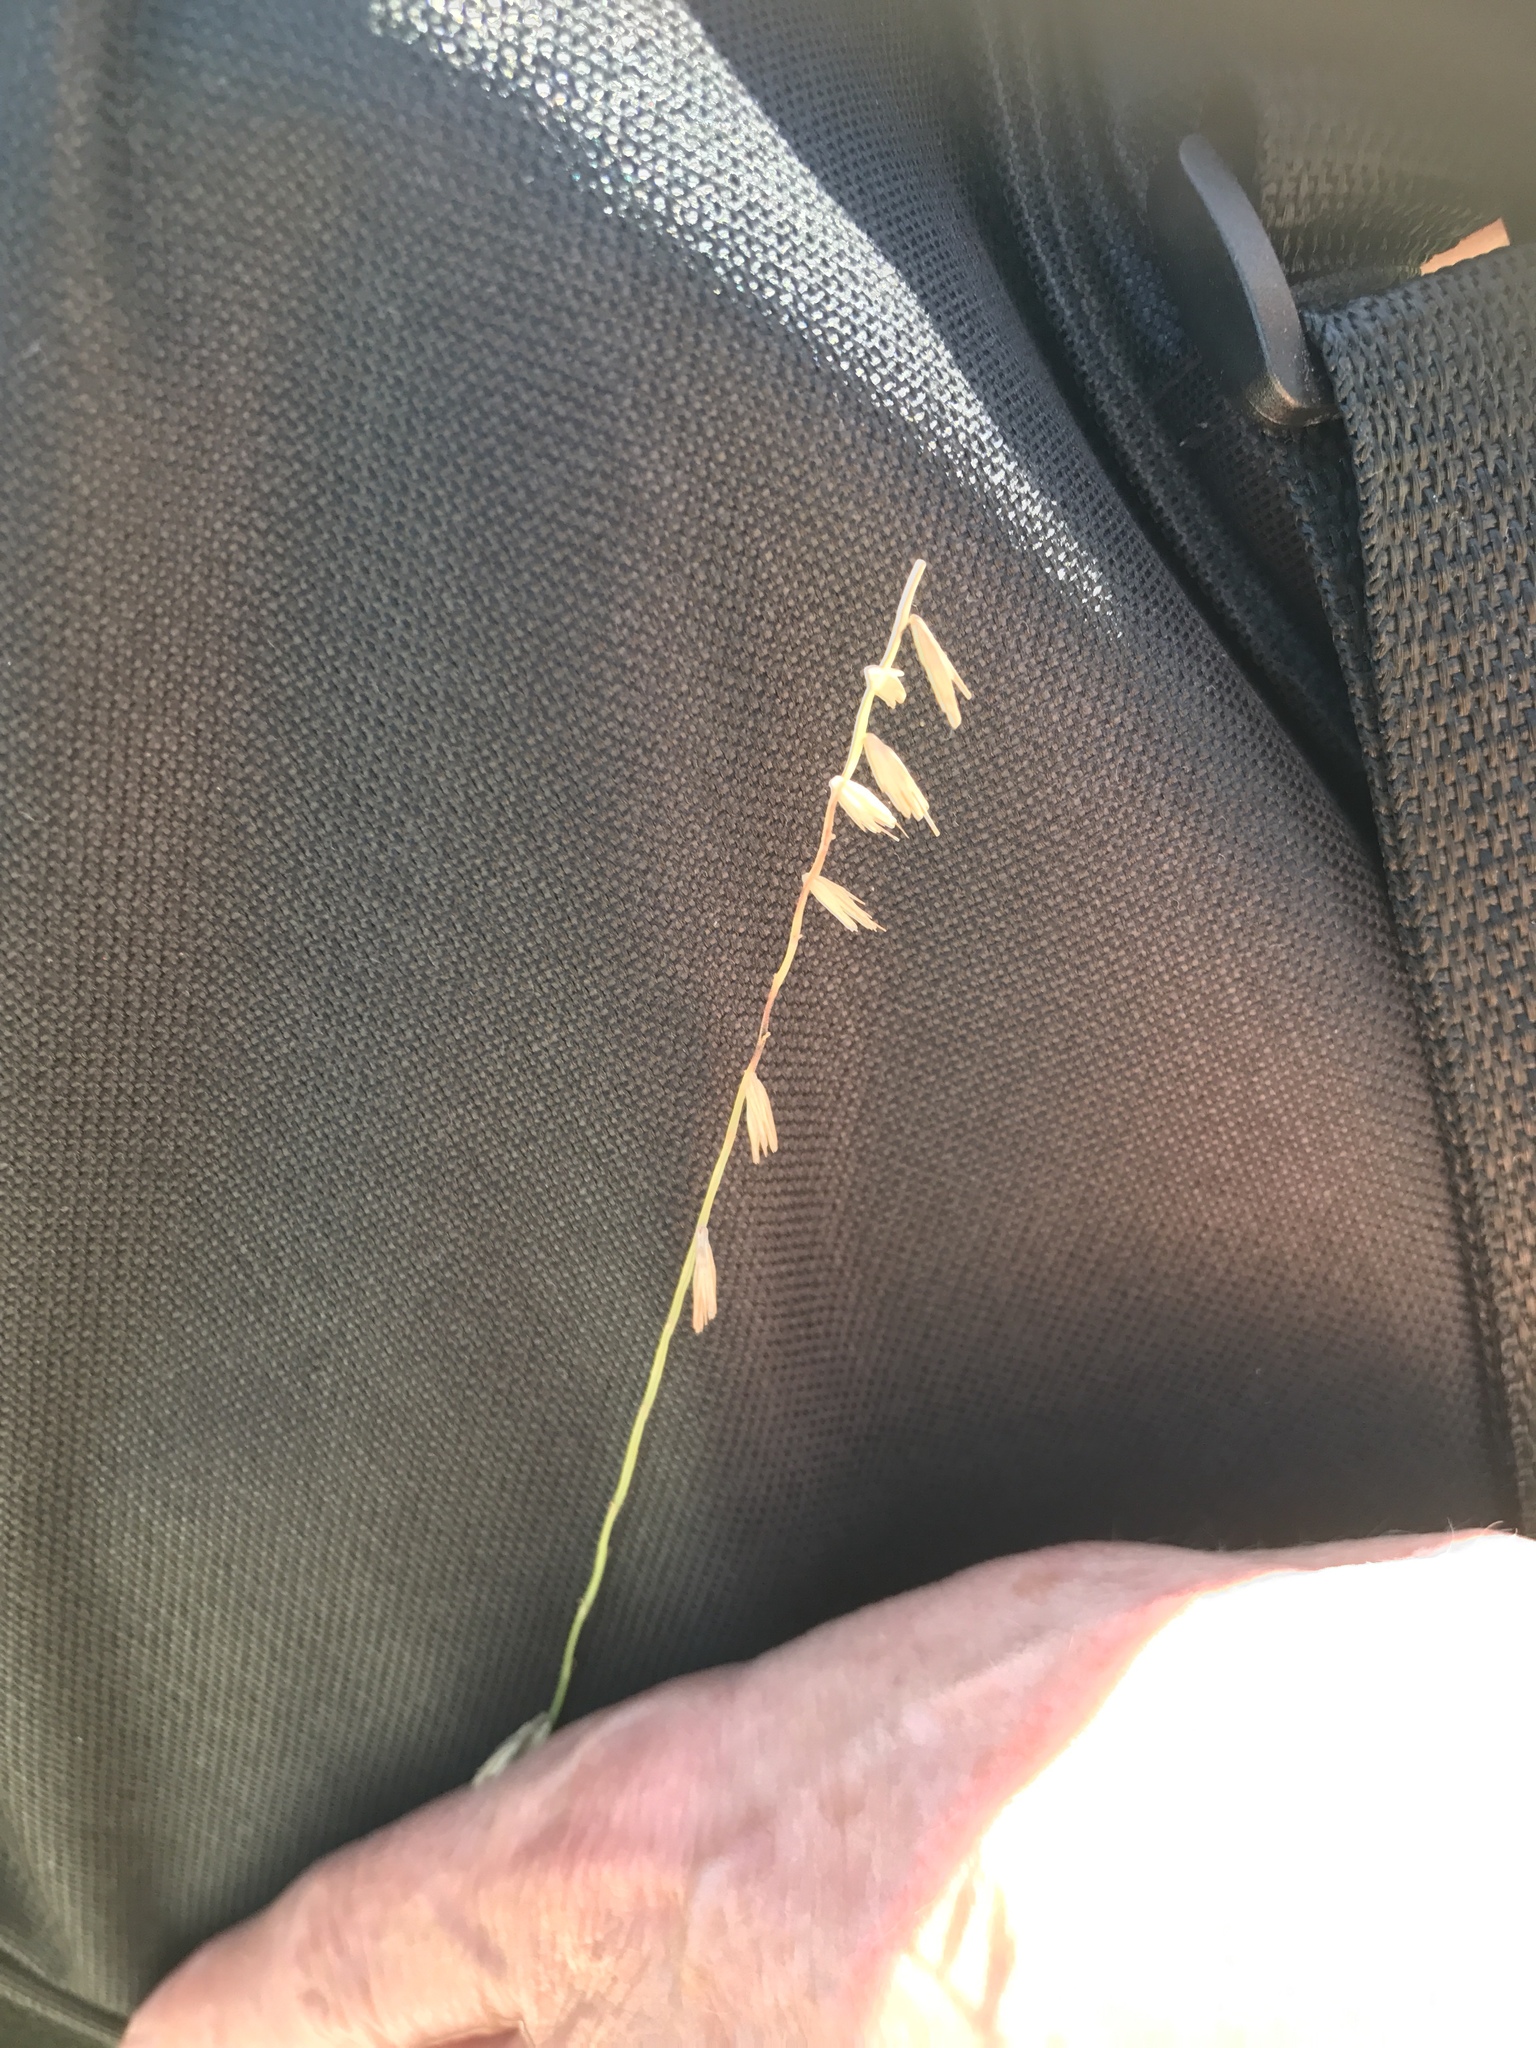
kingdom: Plantae
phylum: Tracheophyta
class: Liliopsida
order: Poales
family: Poaceae
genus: Bouteloua
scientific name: Bouteloua curtipendula
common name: Side-oats grama
